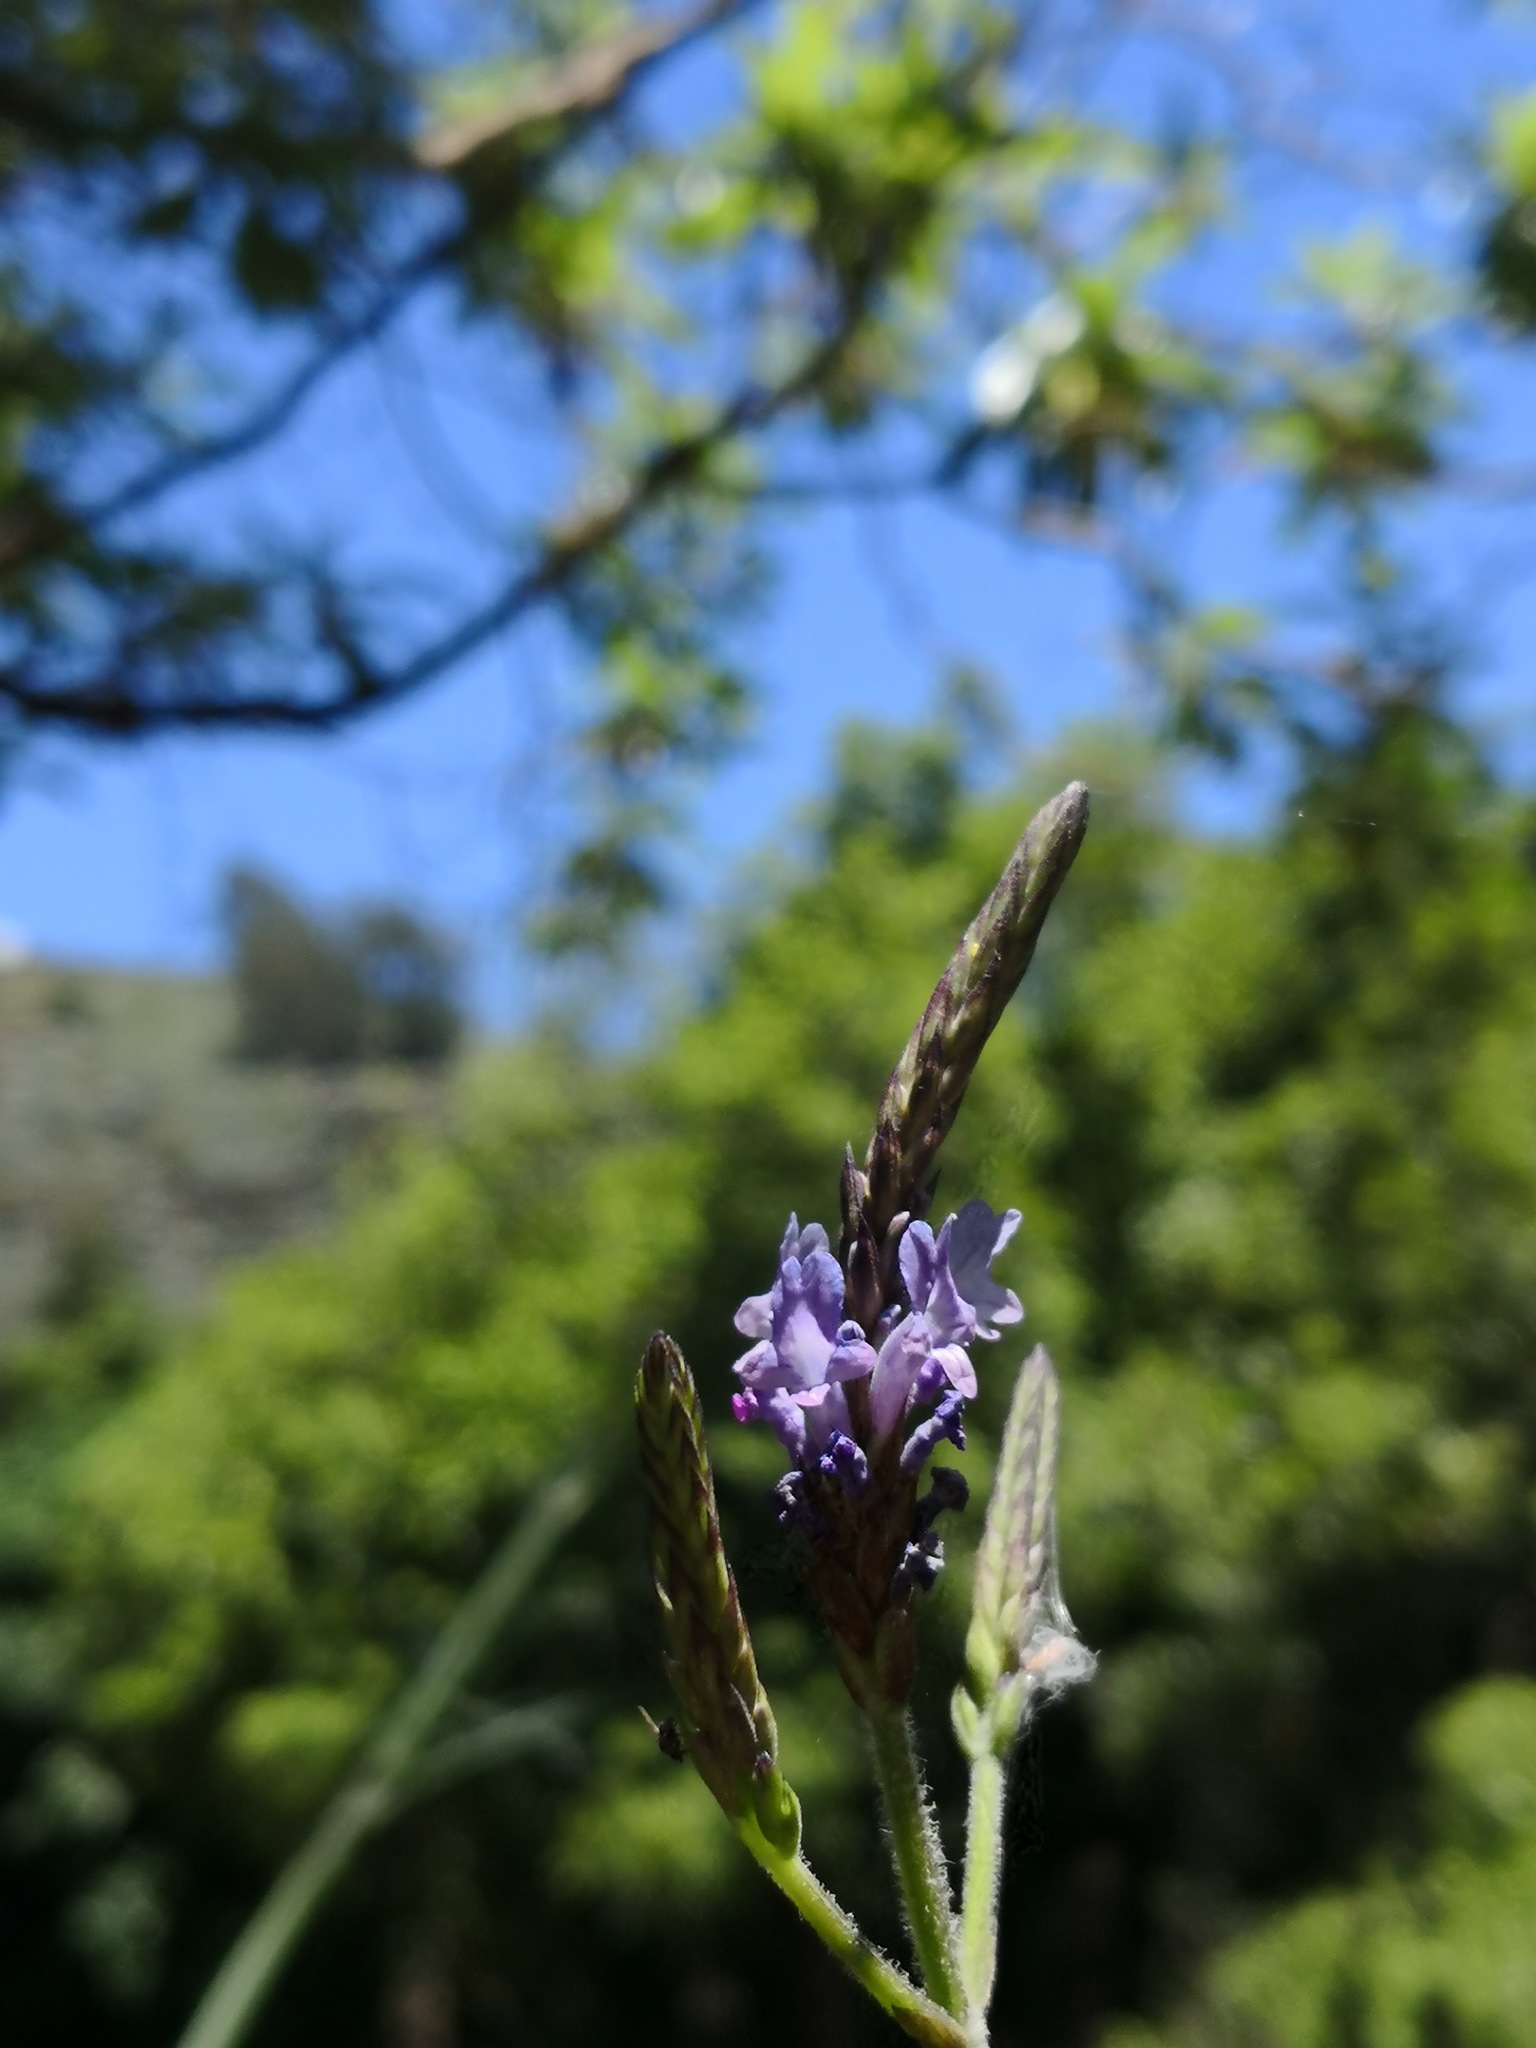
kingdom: Plantae
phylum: Tracheophyta
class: Magnoliopsida
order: Lamiales
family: Lamiaceae
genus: Lavandula
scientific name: Lavandula canariensis
